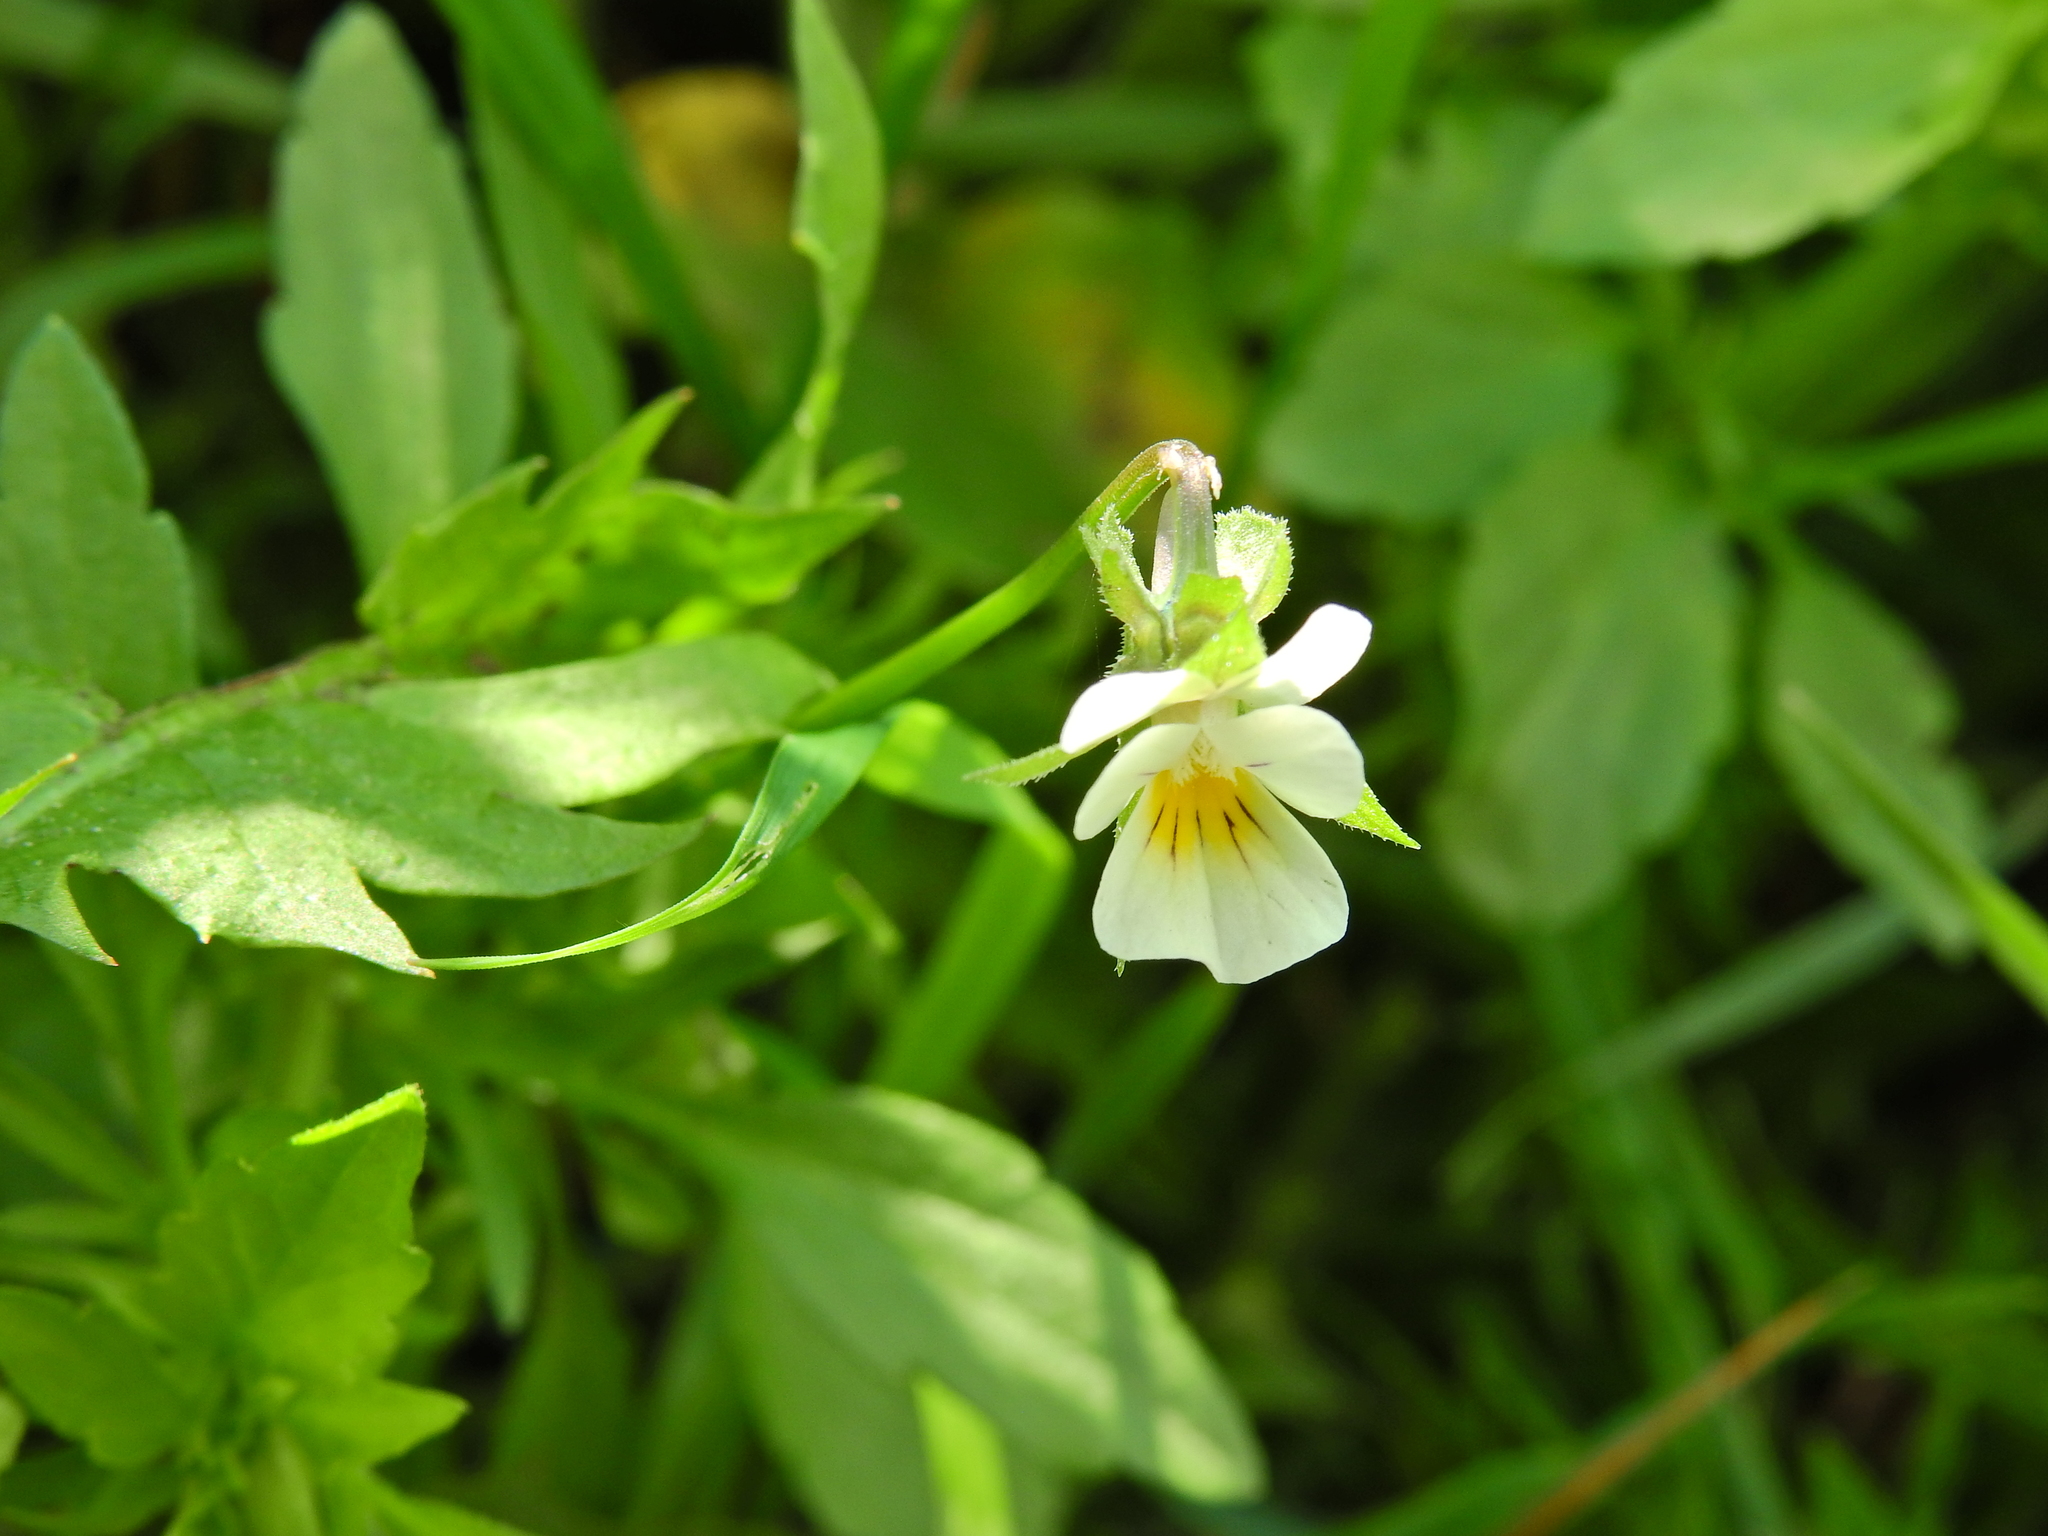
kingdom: Plantae
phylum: Tracheophyta
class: Magnoliopsida
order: Malpighiales
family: Violaceae
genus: Viola
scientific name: Viola arvensis
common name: Field pansy
